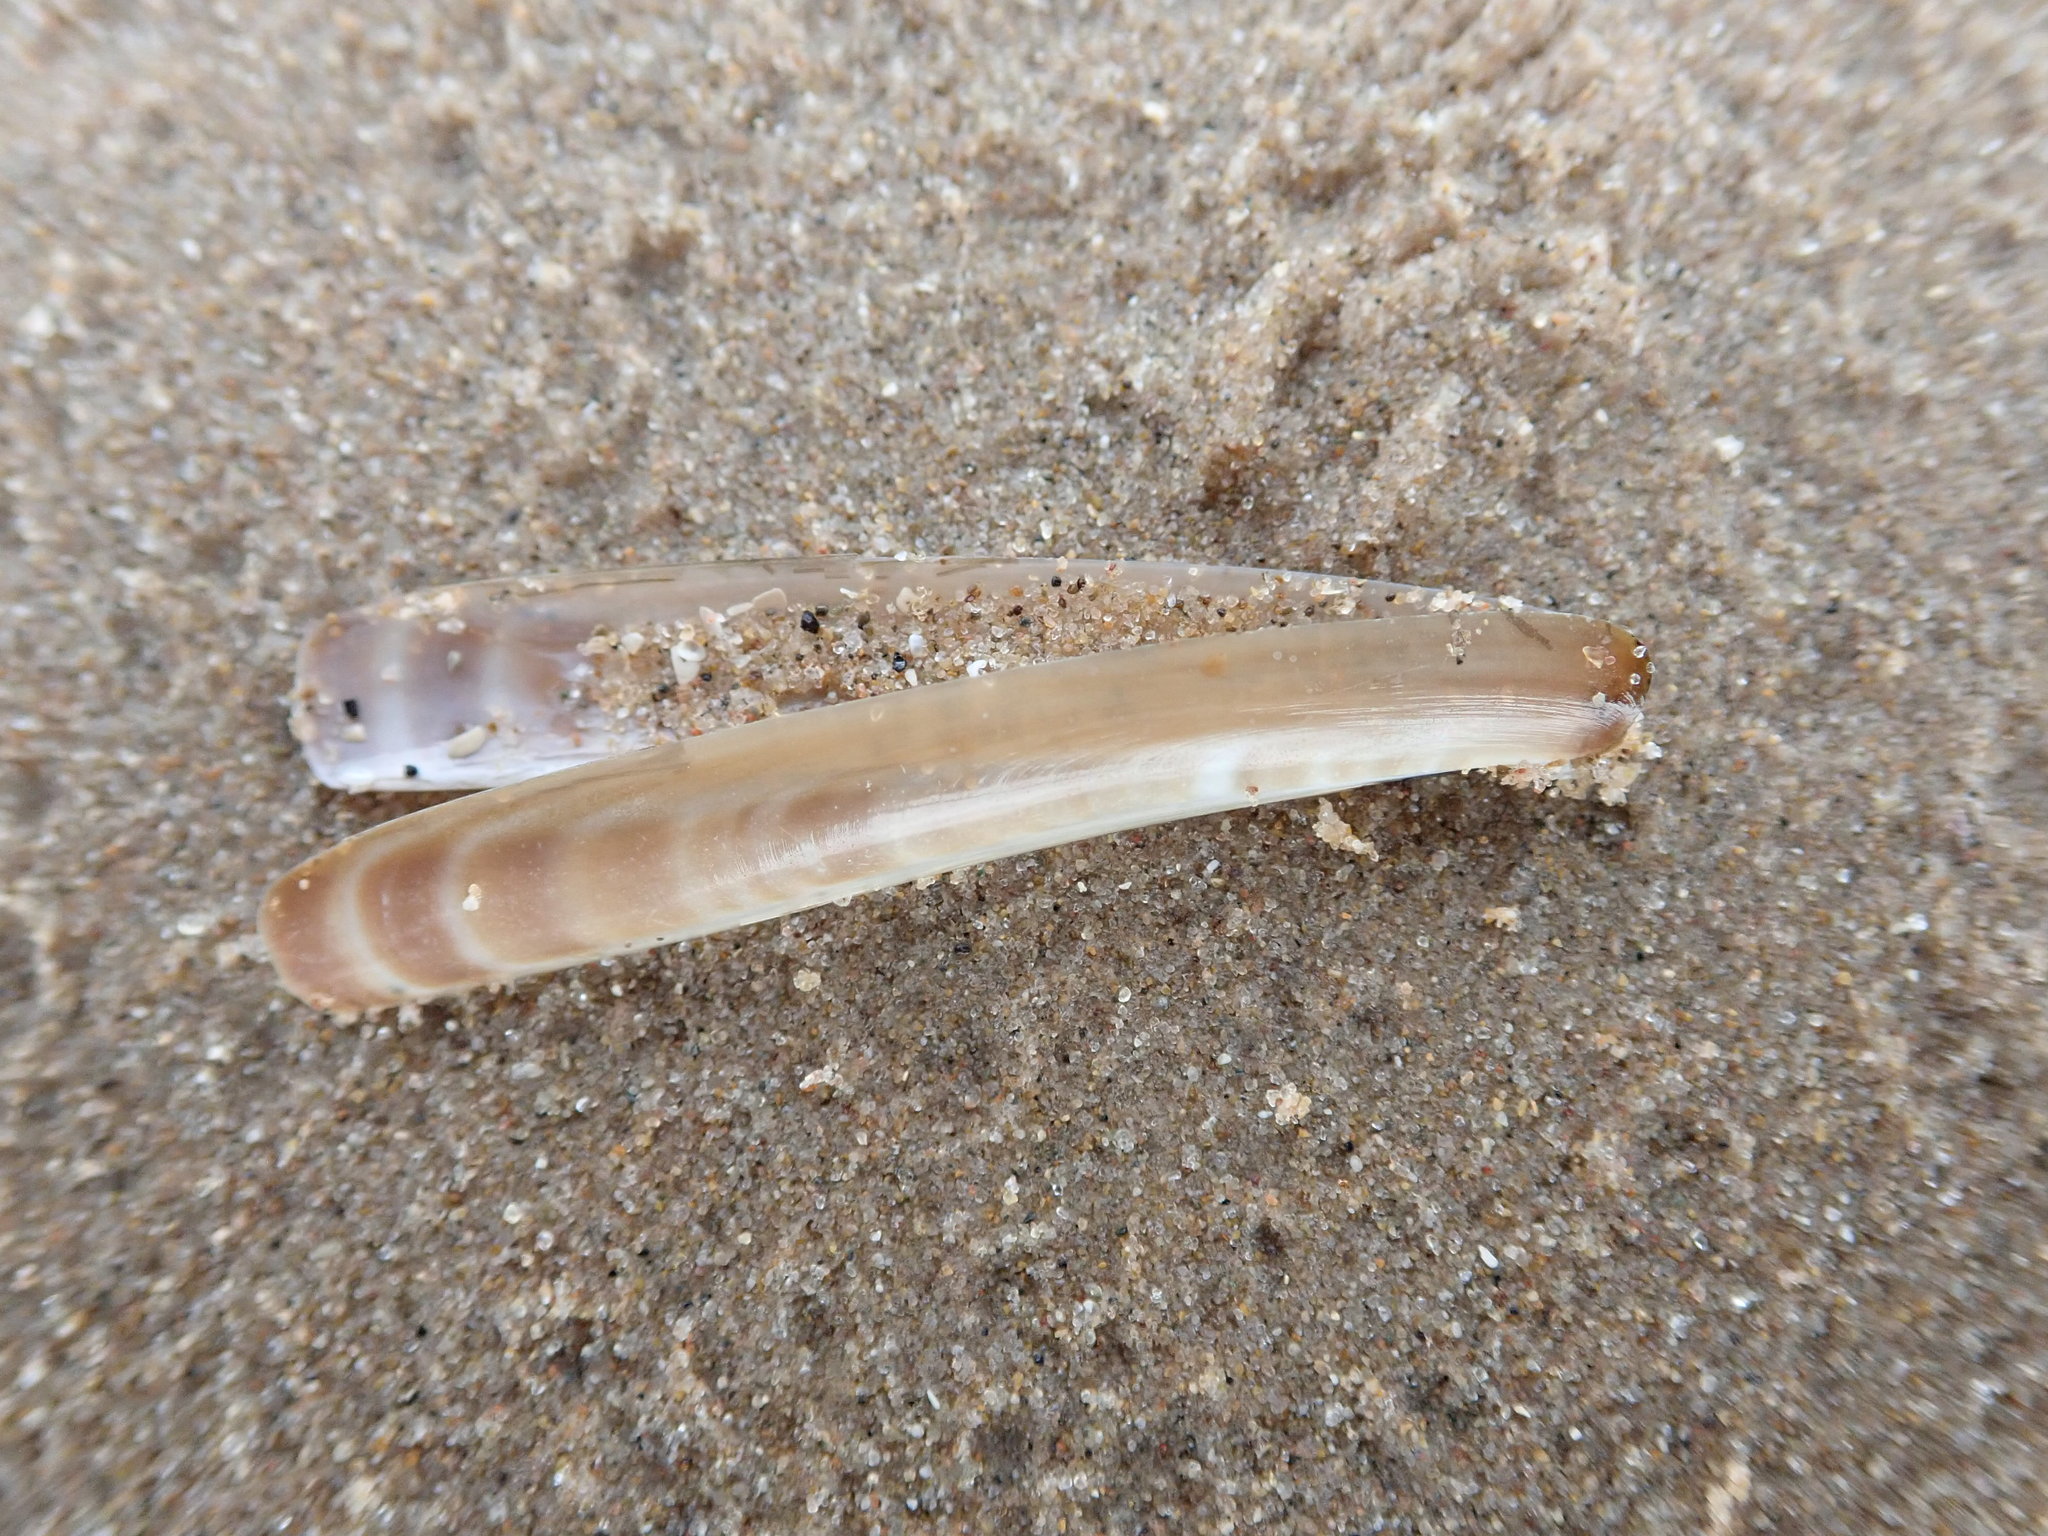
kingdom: Animalia
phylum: Mollusca
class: Bivalvia
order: Adapedonta
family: Pharidae
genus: Ensis
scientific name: Ensis leei
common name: American jack knife clam
